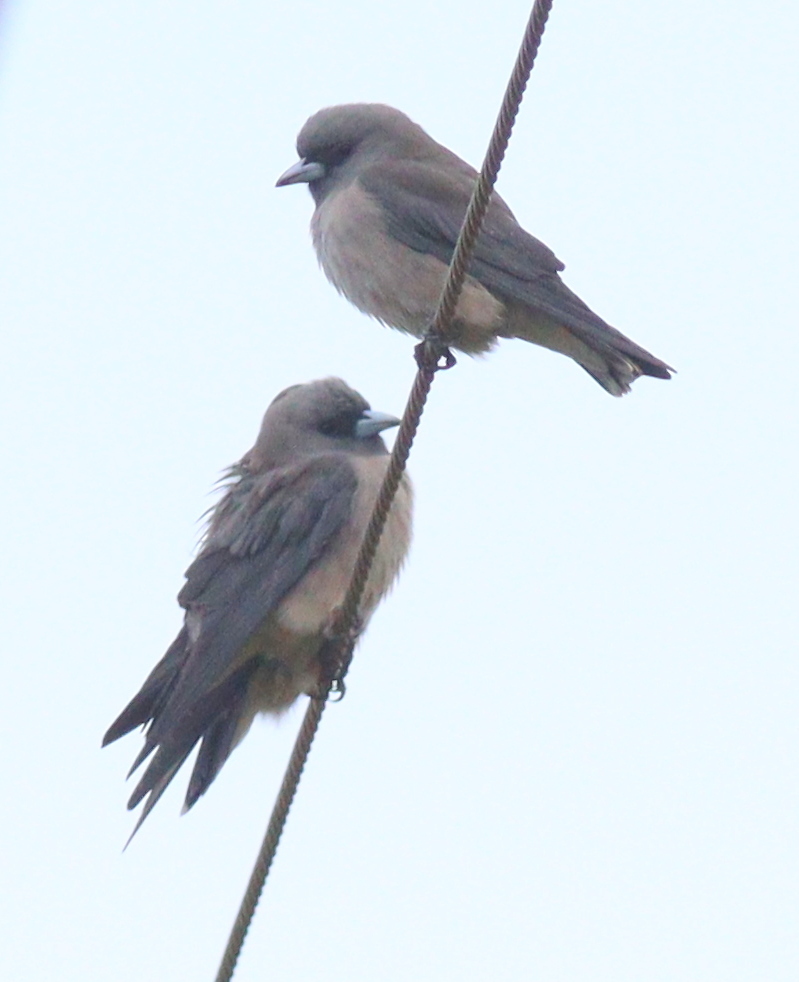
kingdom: Animalia
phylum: Chordata
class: Aves
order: Passeriformes
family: Artamidae
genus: Artamus
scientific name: Artamus fuscus
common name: Ashy woodswallow
